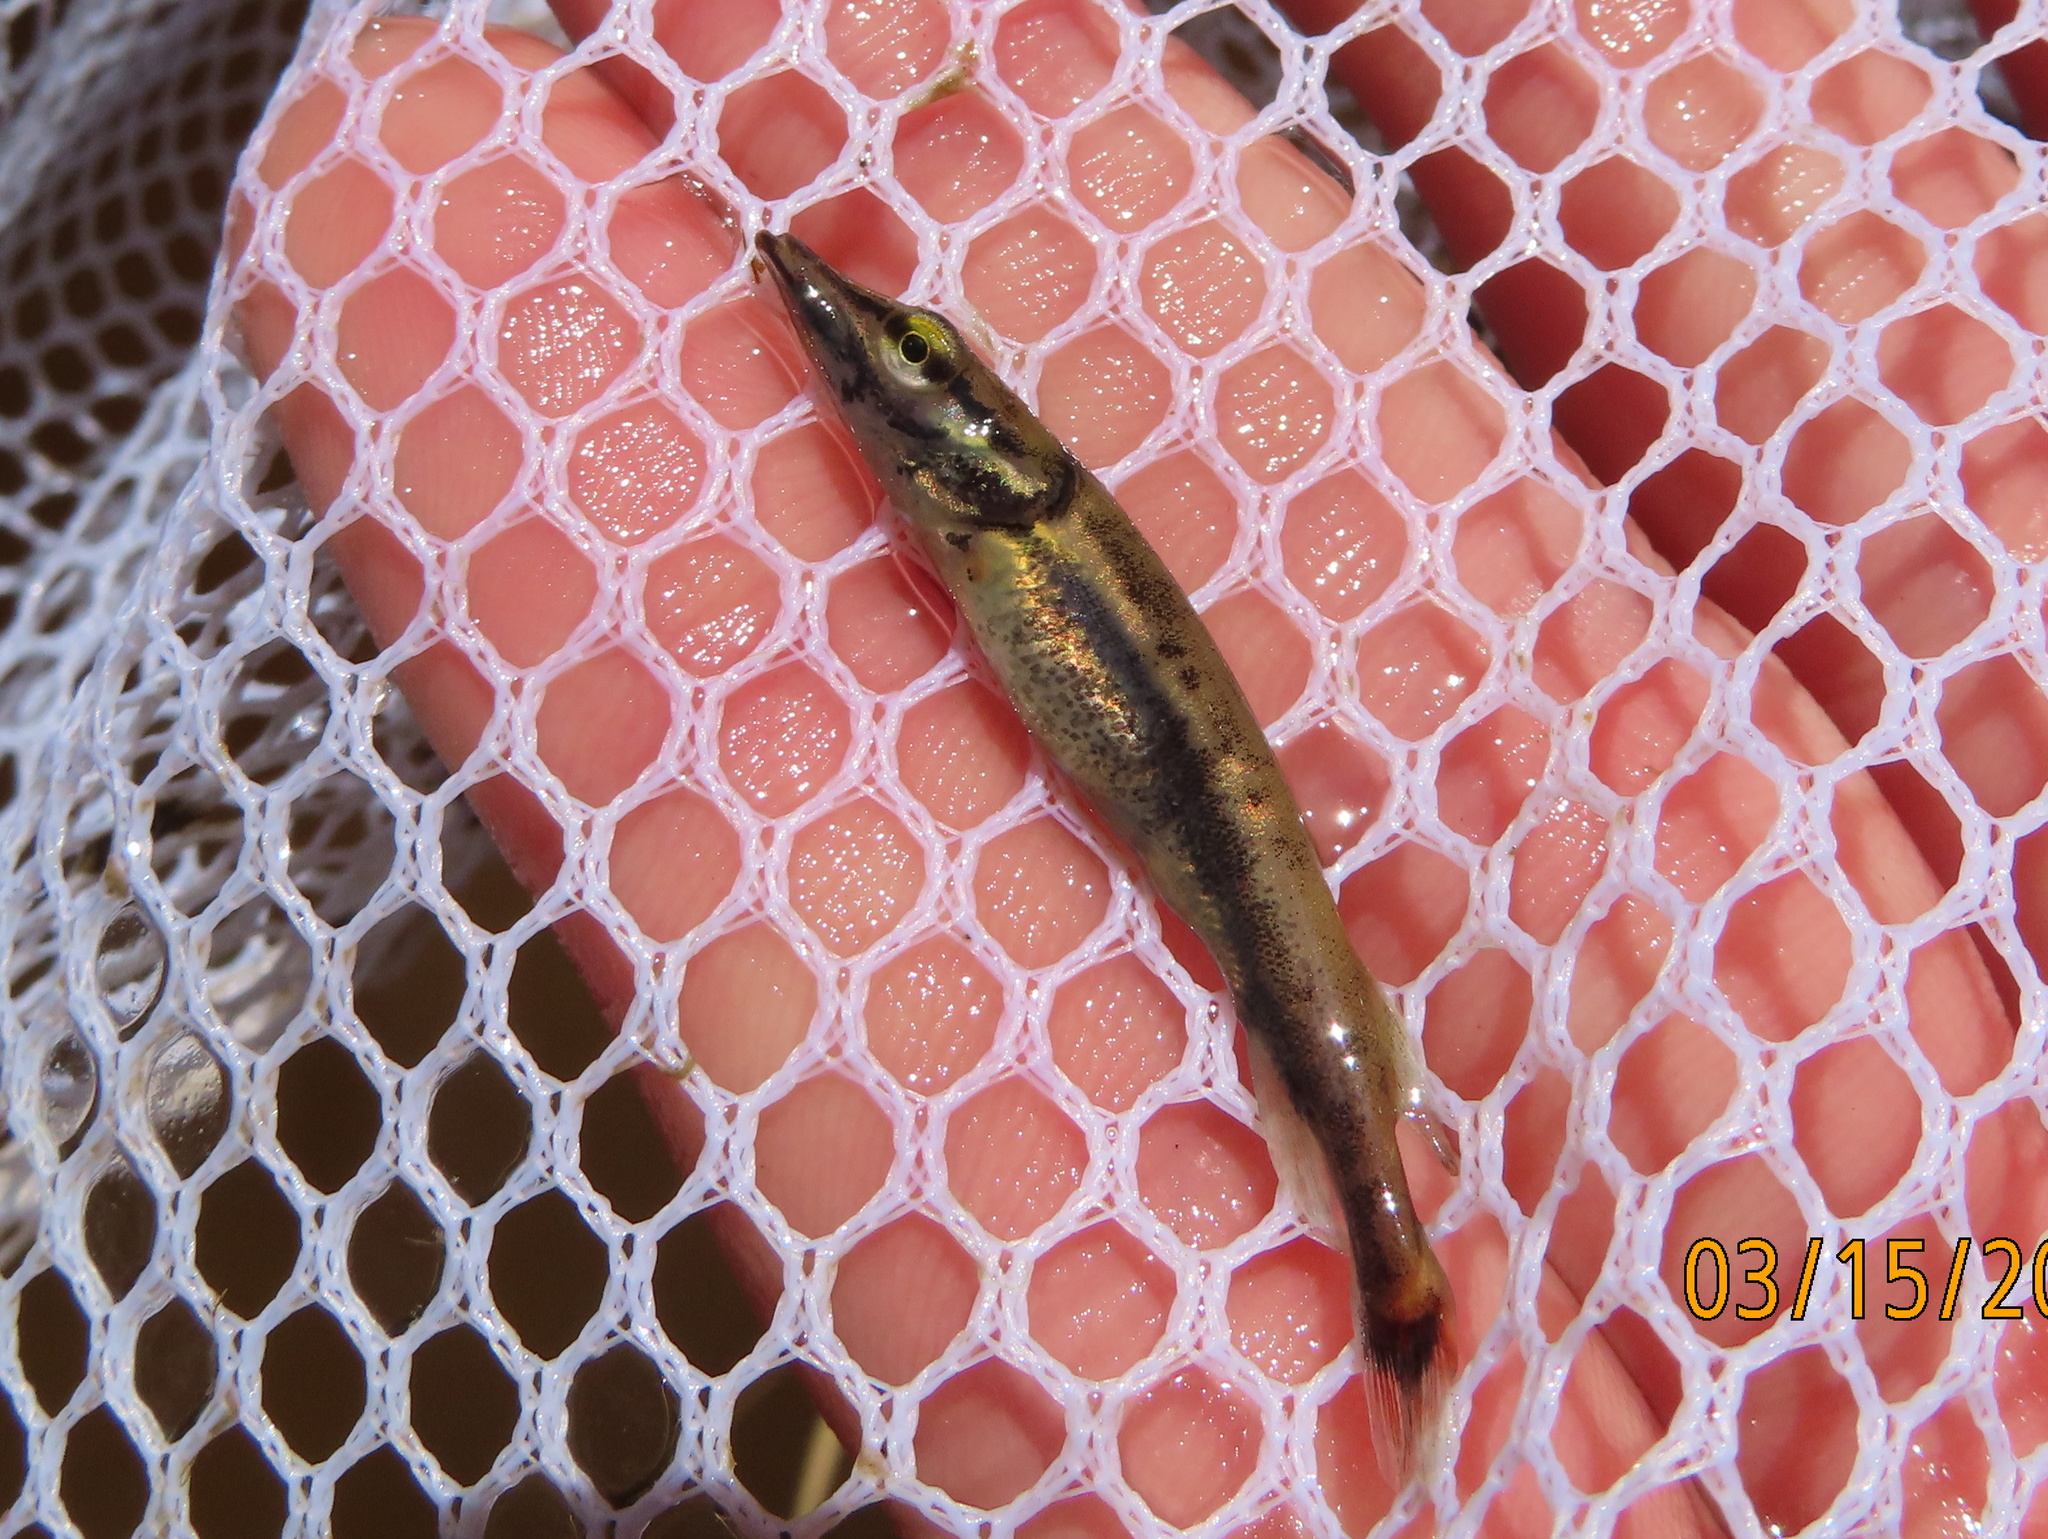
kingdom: Animalia
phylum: Chordata
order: Esociformes
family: Esocidae
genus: Esox
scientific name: Esox americanus
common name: Redfin pickerel
